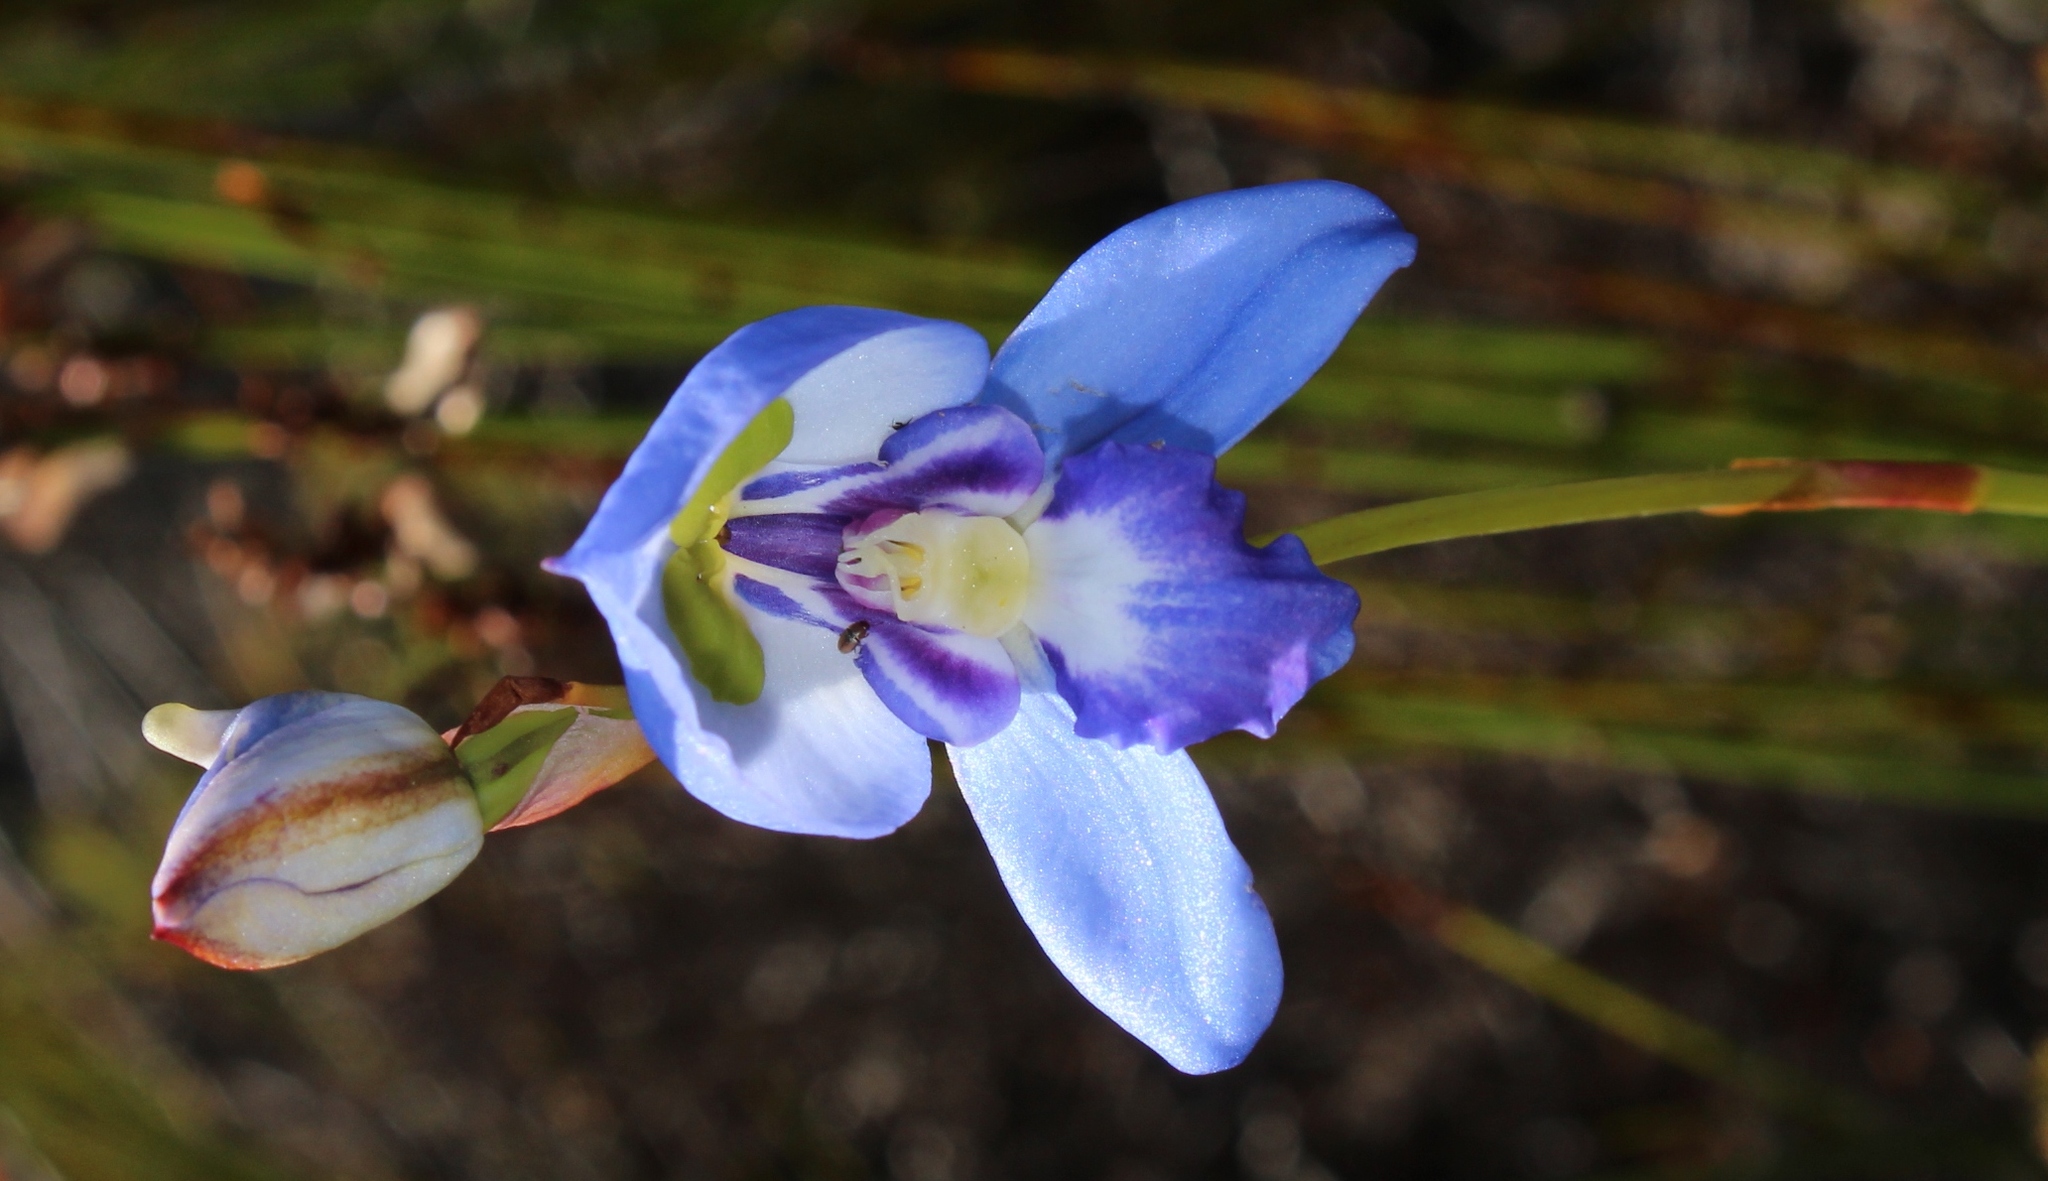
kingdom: Plantae
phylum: Tracheophyta
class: Liliopsida
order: Asparagales
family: Orchidaceae
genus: Disa
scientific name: Disa graminifolia
